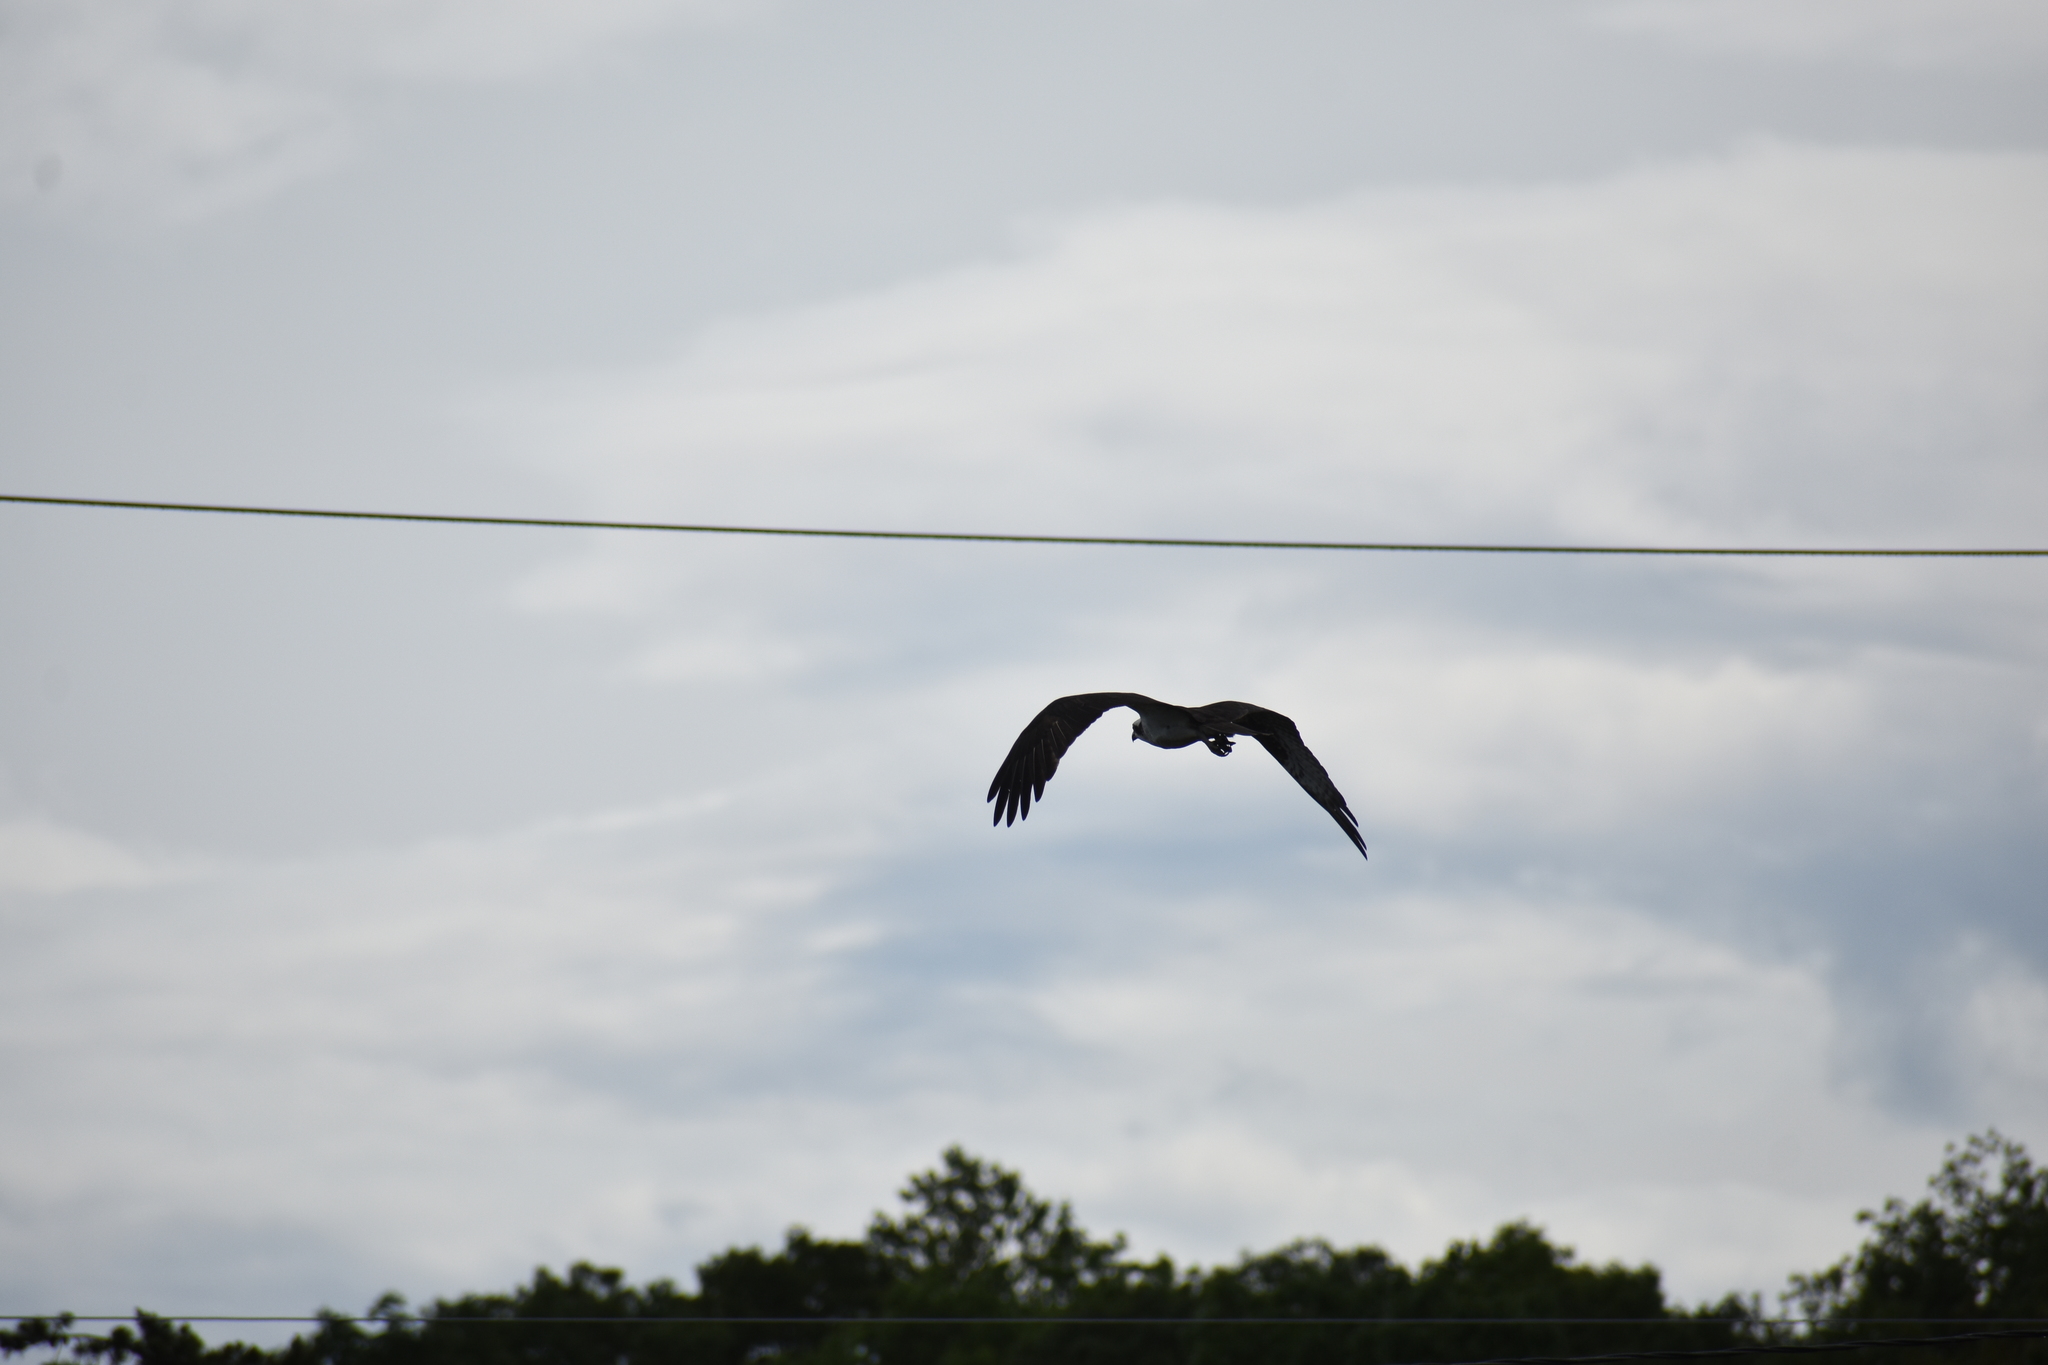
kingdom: Animalia
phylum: Chordata
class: Aves
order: Accipitriformes
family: Pandionidae
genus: Pandion
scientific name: Pandion haliaetus
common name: Osprey
